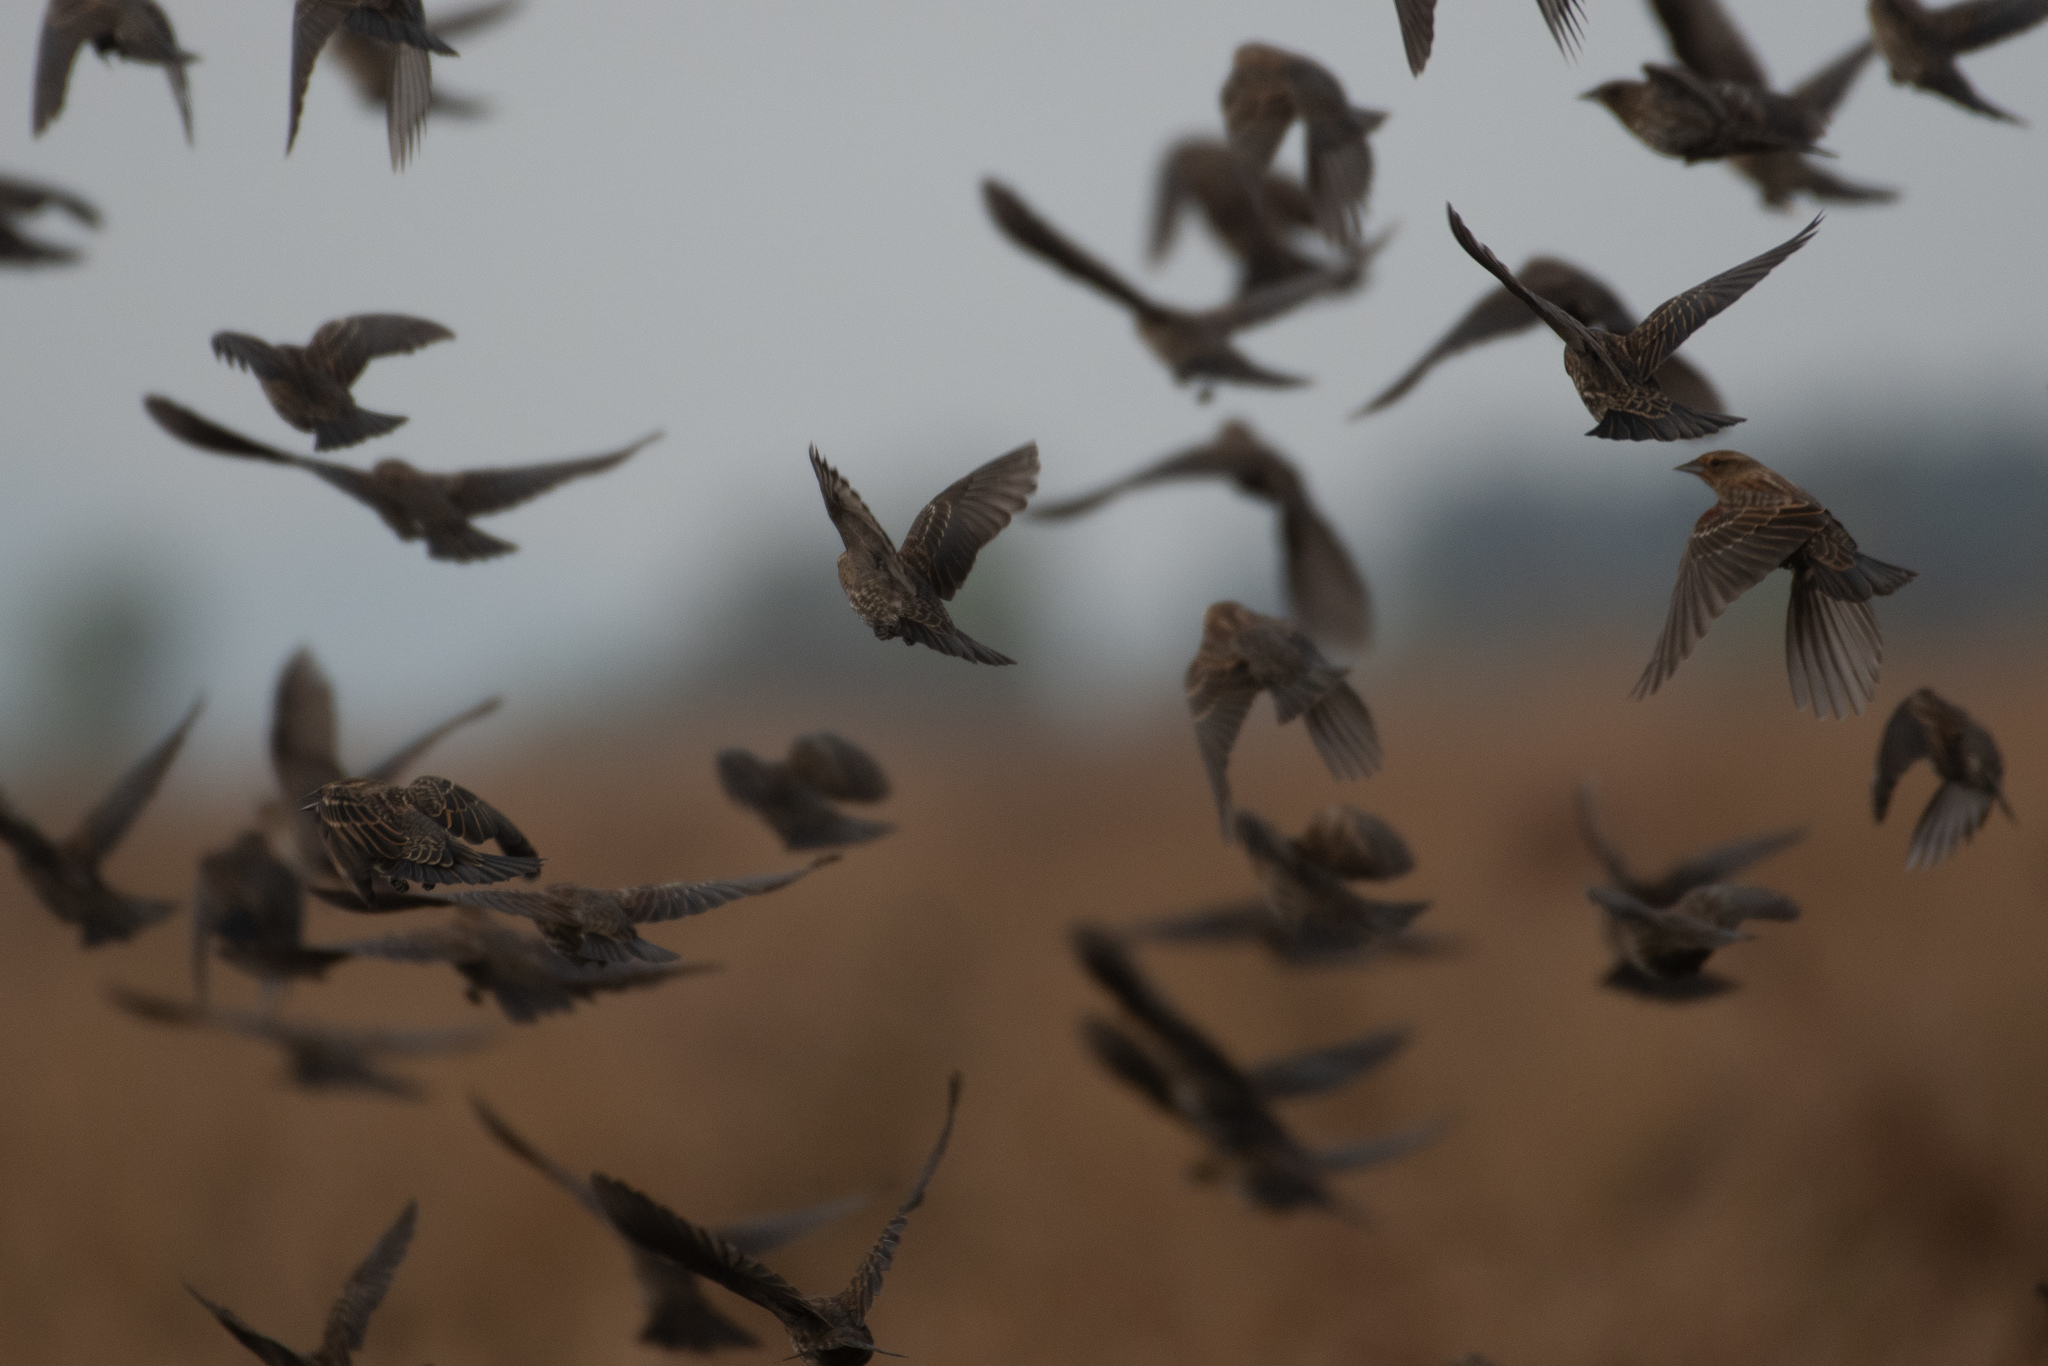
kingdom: Animalia
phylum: Chordata
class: Aves
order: Passeriformes
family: Icteridae
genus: Agelaius
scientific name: Agelaius phoeniceus
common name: Red-winged blackbird
